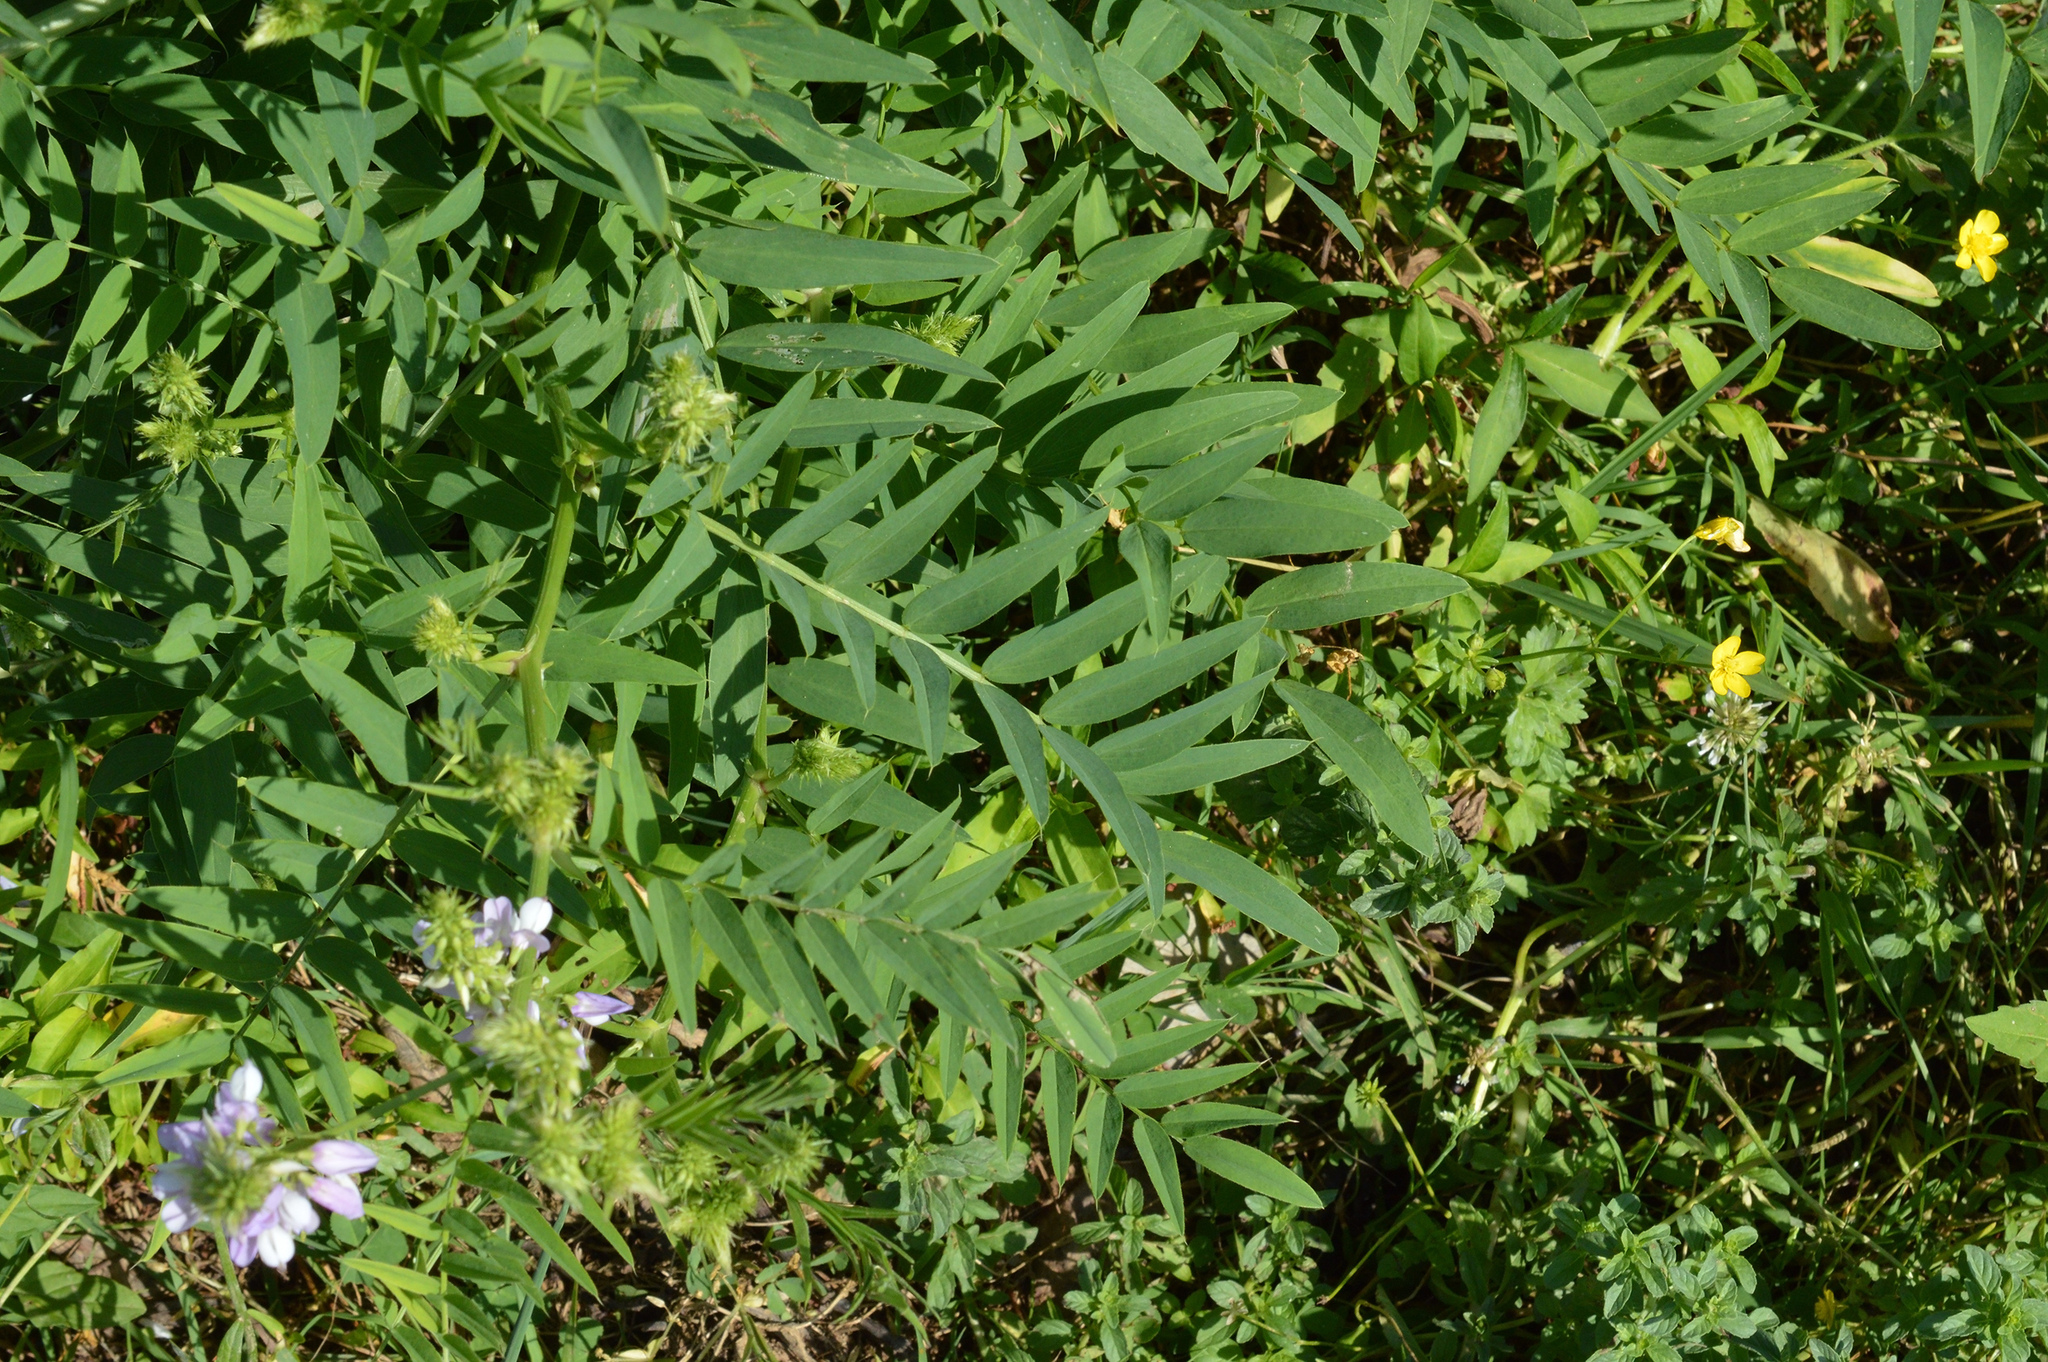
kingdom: Plantae
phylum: Tracheophyta
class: Magnoliopsida
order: Fabales
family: Fabaceae
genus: Galega
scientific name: Galega officinalis
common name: Goat's-rue
